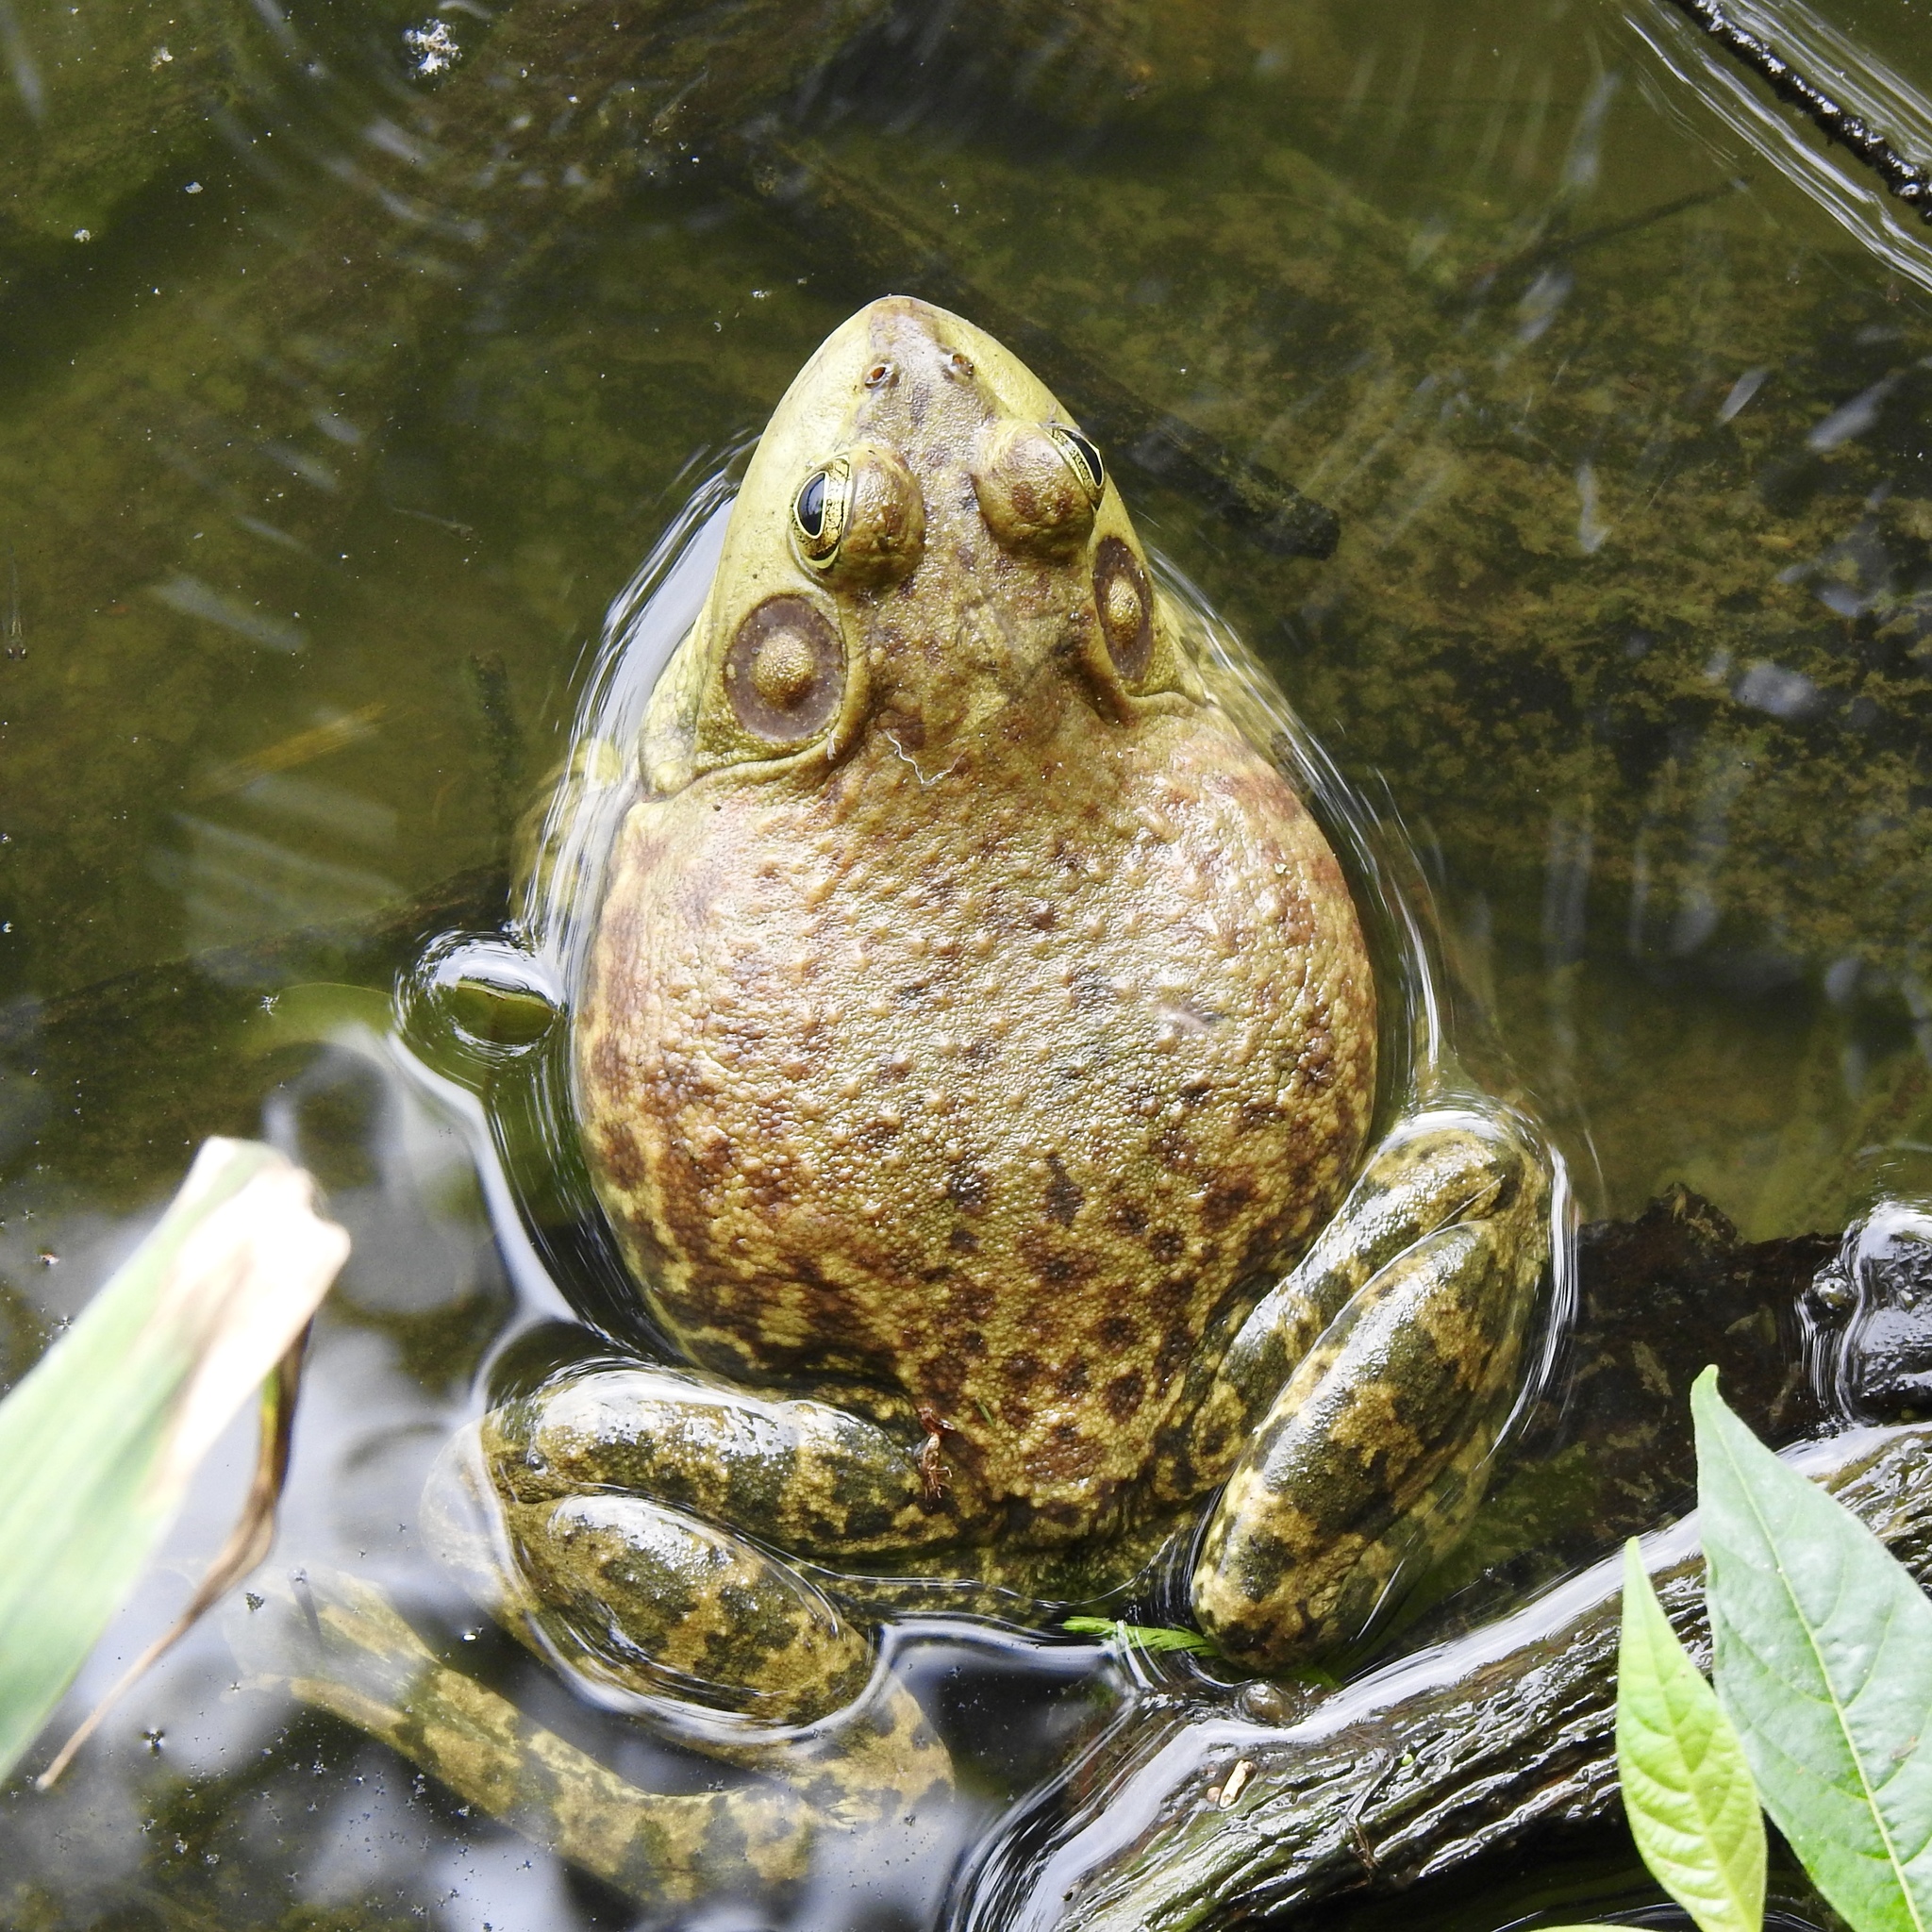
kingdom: Animalia
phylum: Chordata
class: Amphibia
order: Anura
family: Ranidae
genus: Lithobates
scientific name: Lithobates catesbeianus
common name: American bullfrog
